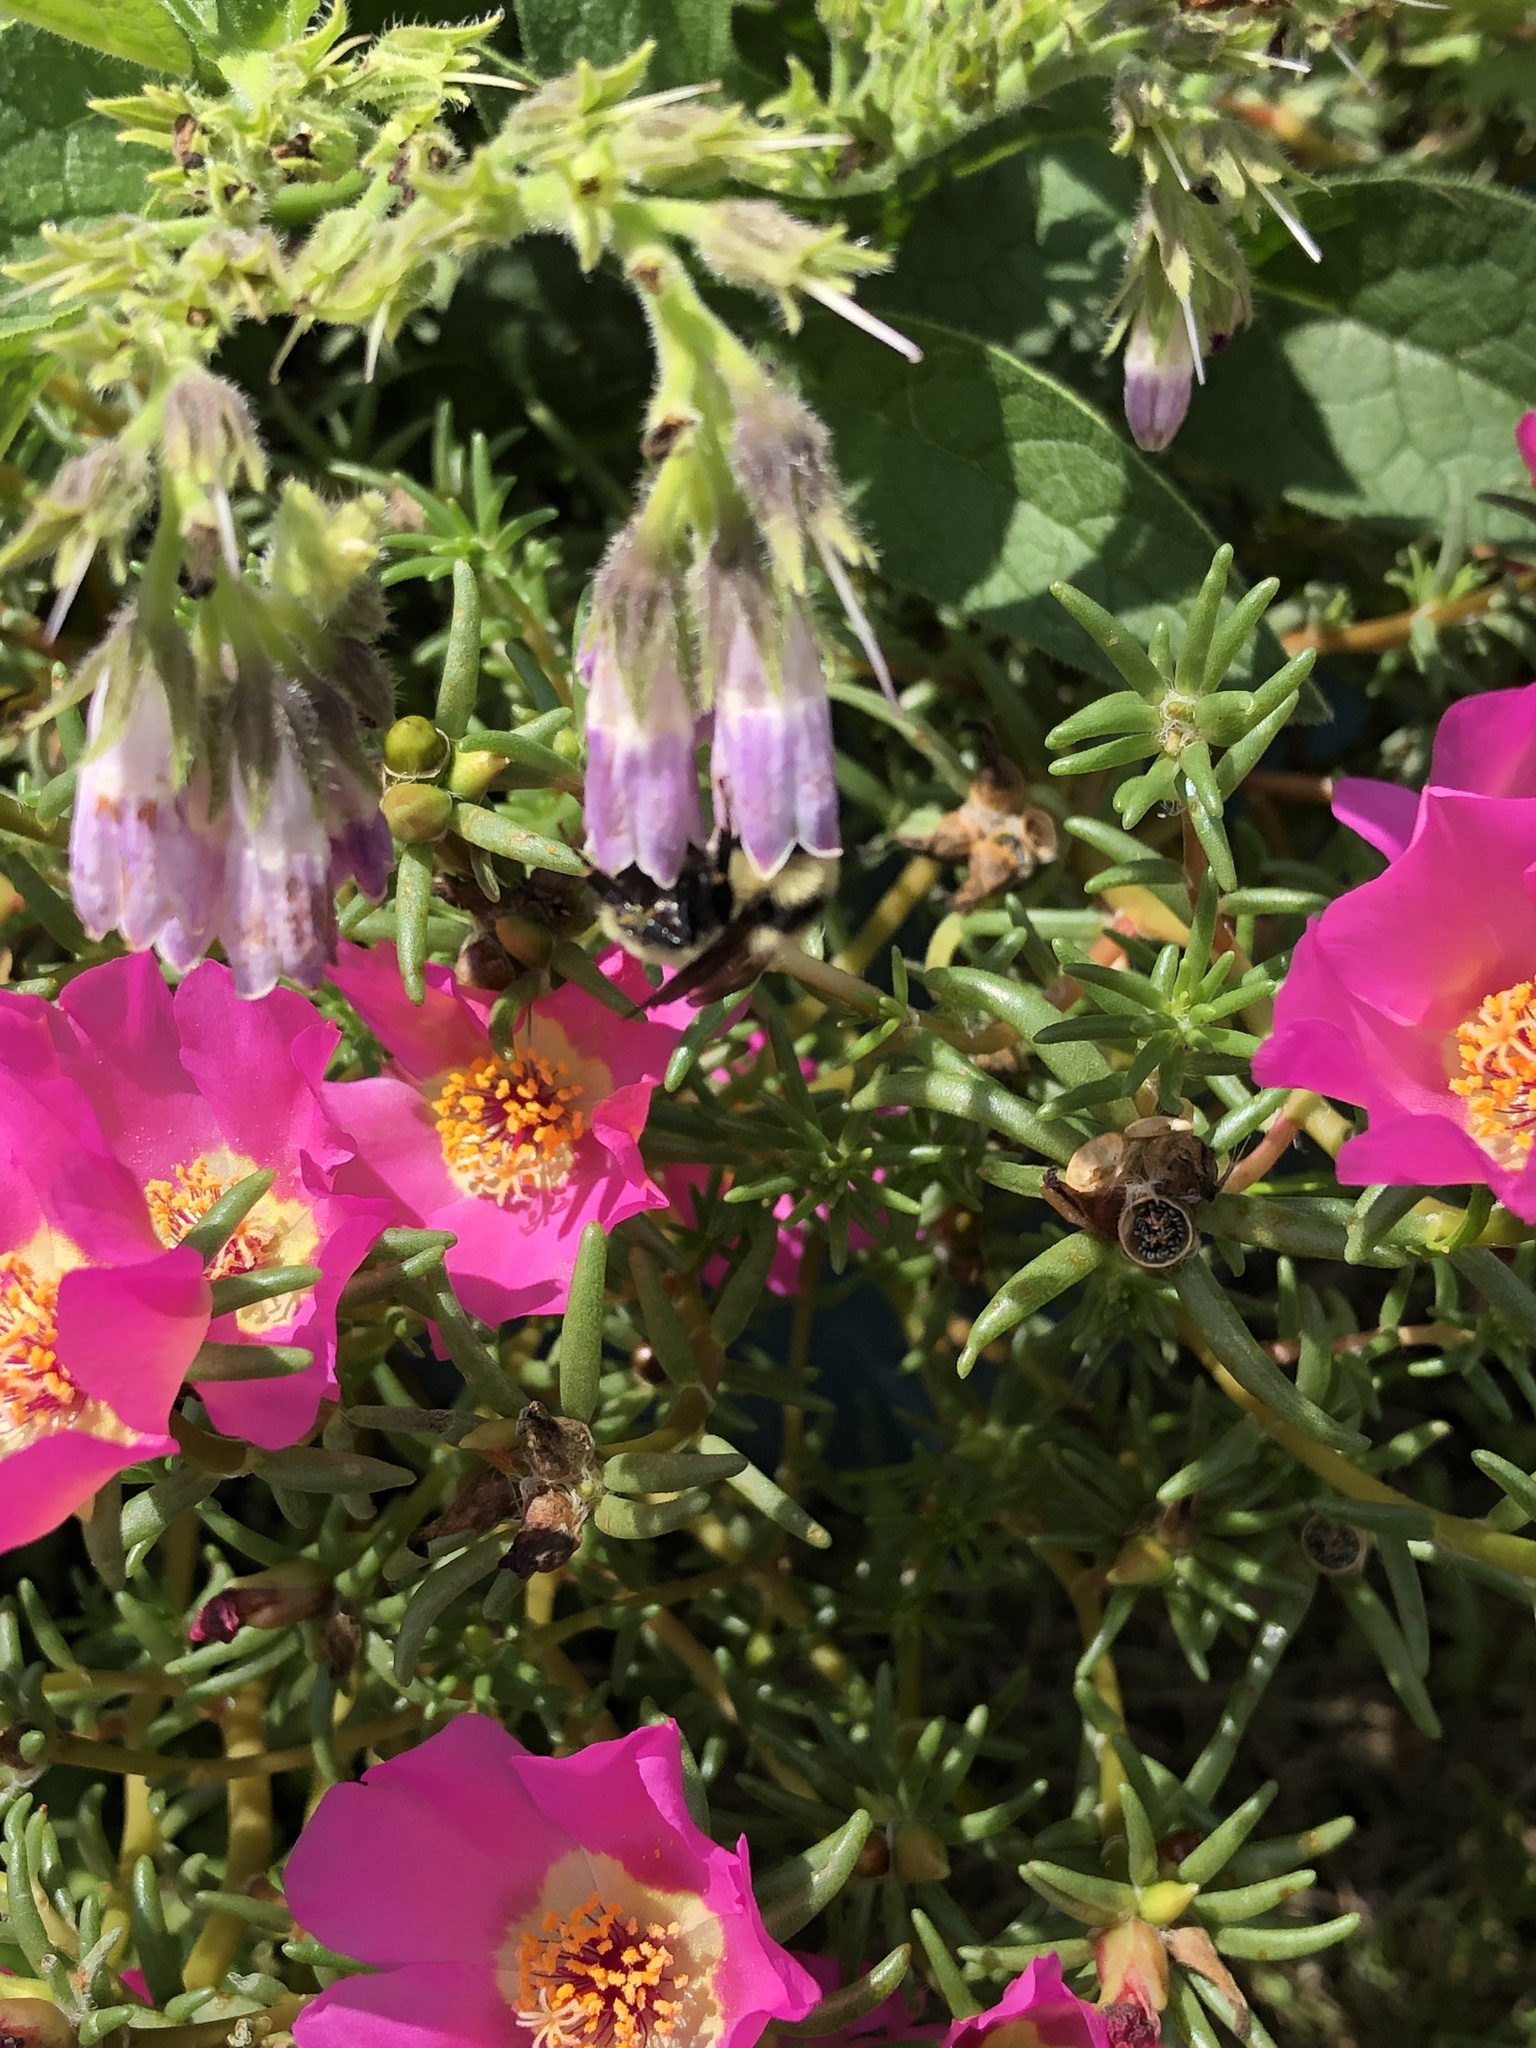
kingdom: Animalia
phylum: Arthropoda
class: Insecta
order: Hymenoptera
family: Apidae
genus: Bombus
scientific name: Bombus fervidus
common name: Yellow bumble bee
